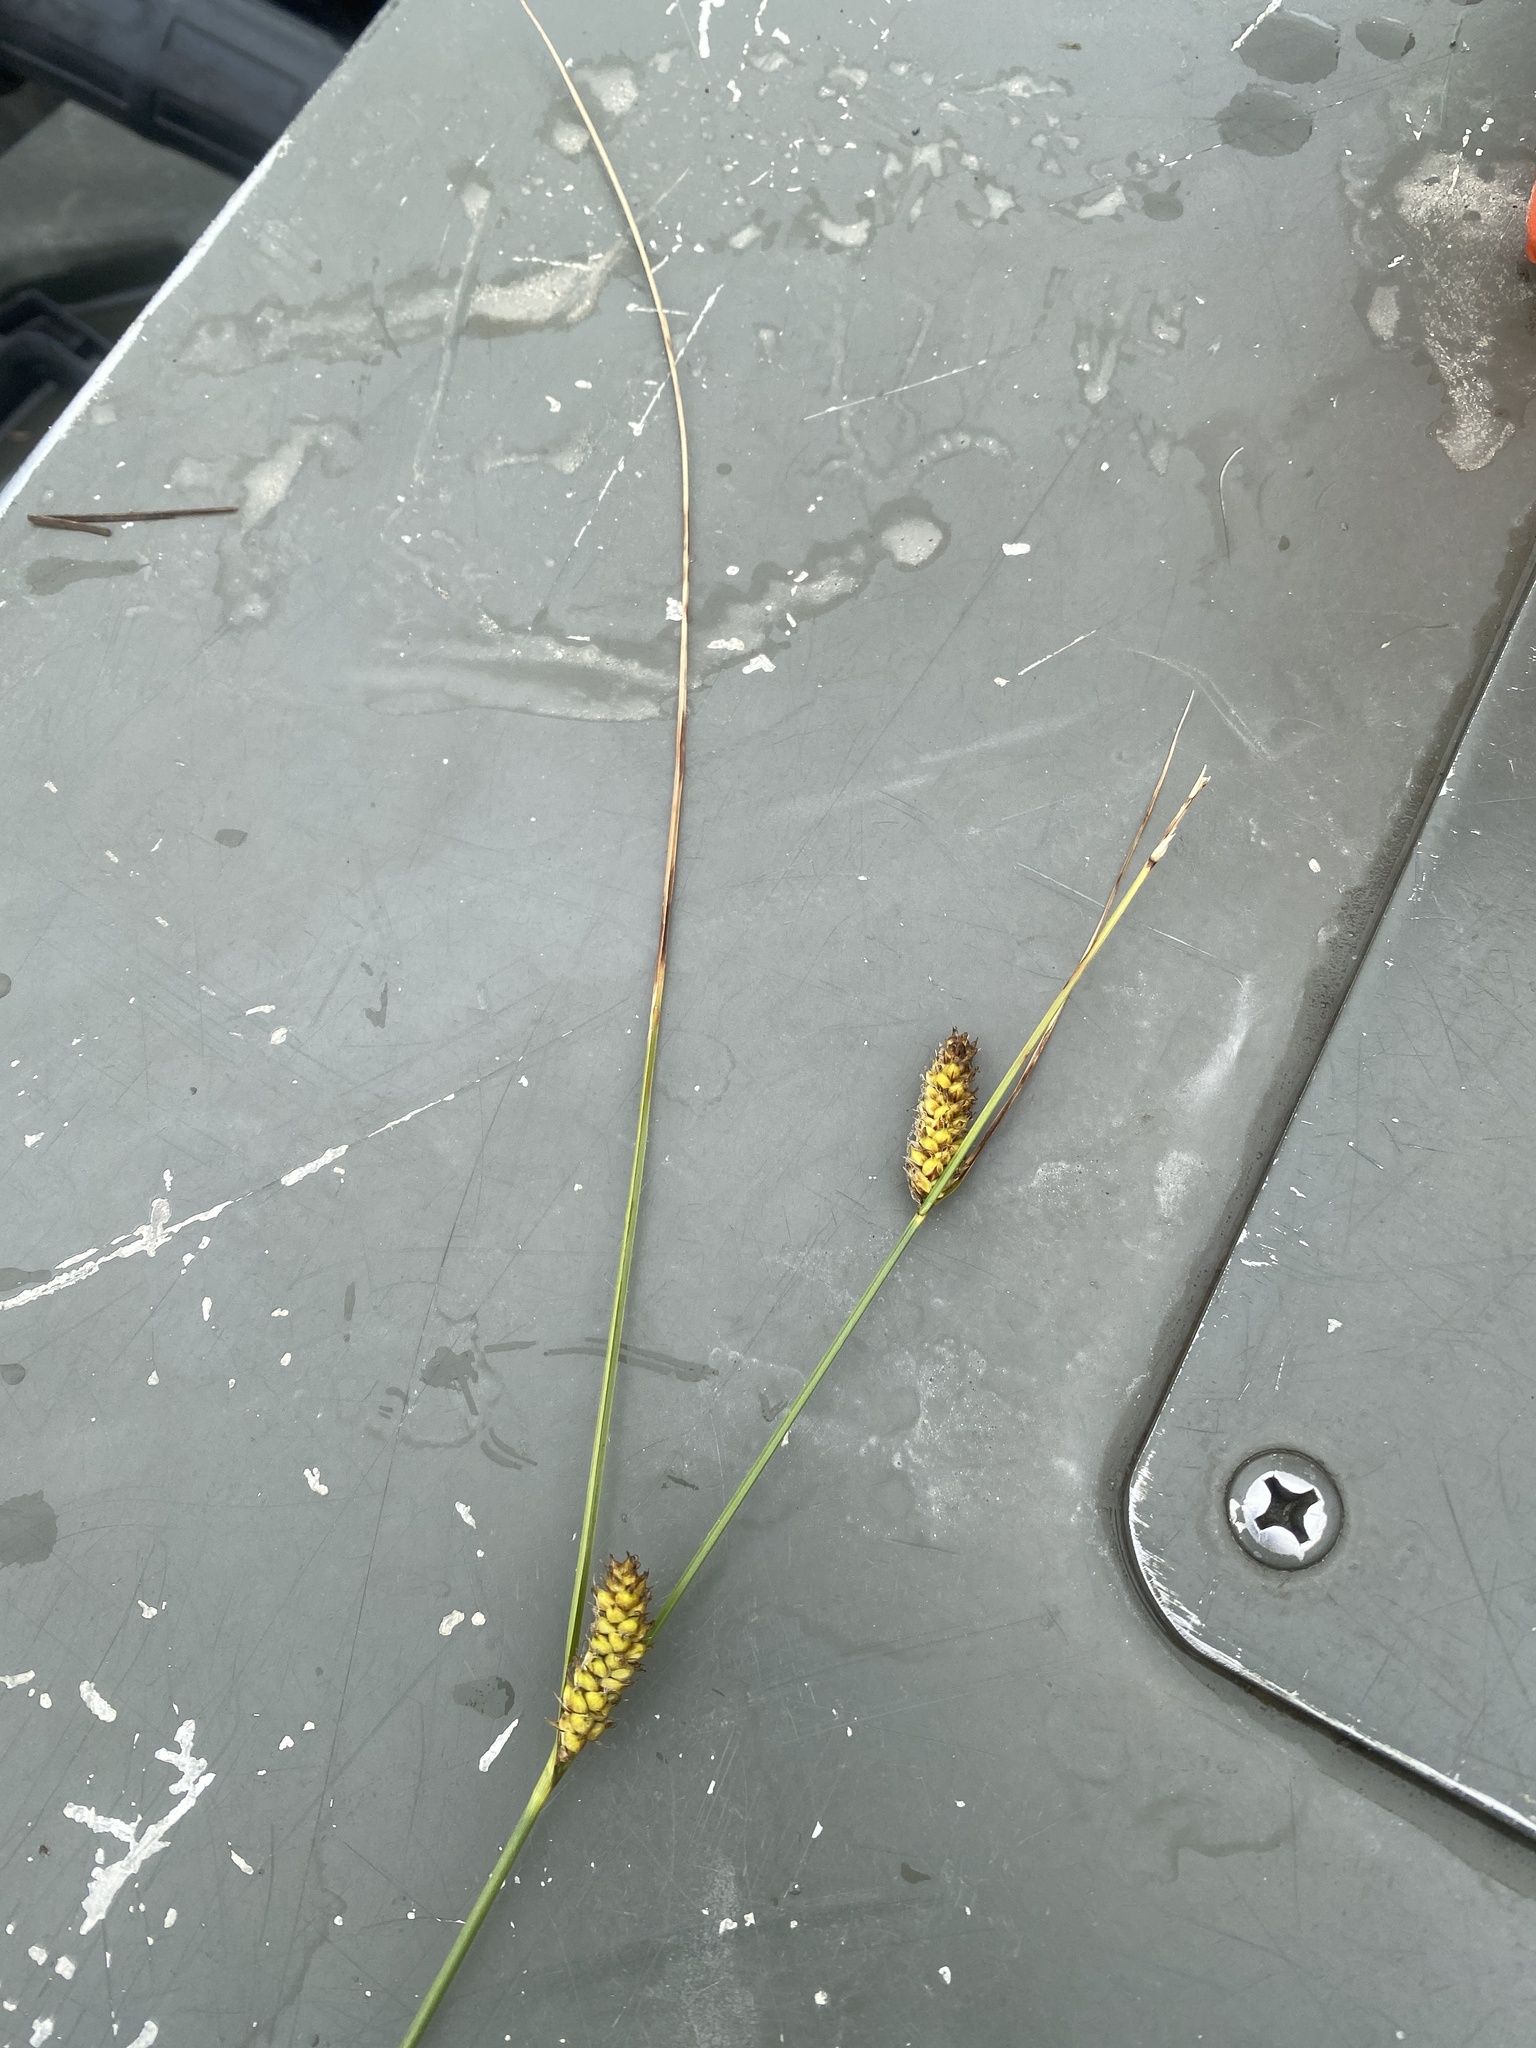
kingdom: Plantae
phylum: Tracheophyta
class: Liliopsida
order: Poales
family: Cyperaceae
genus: Carex
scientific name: Carex lasiocarpa
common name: Slender sedge
